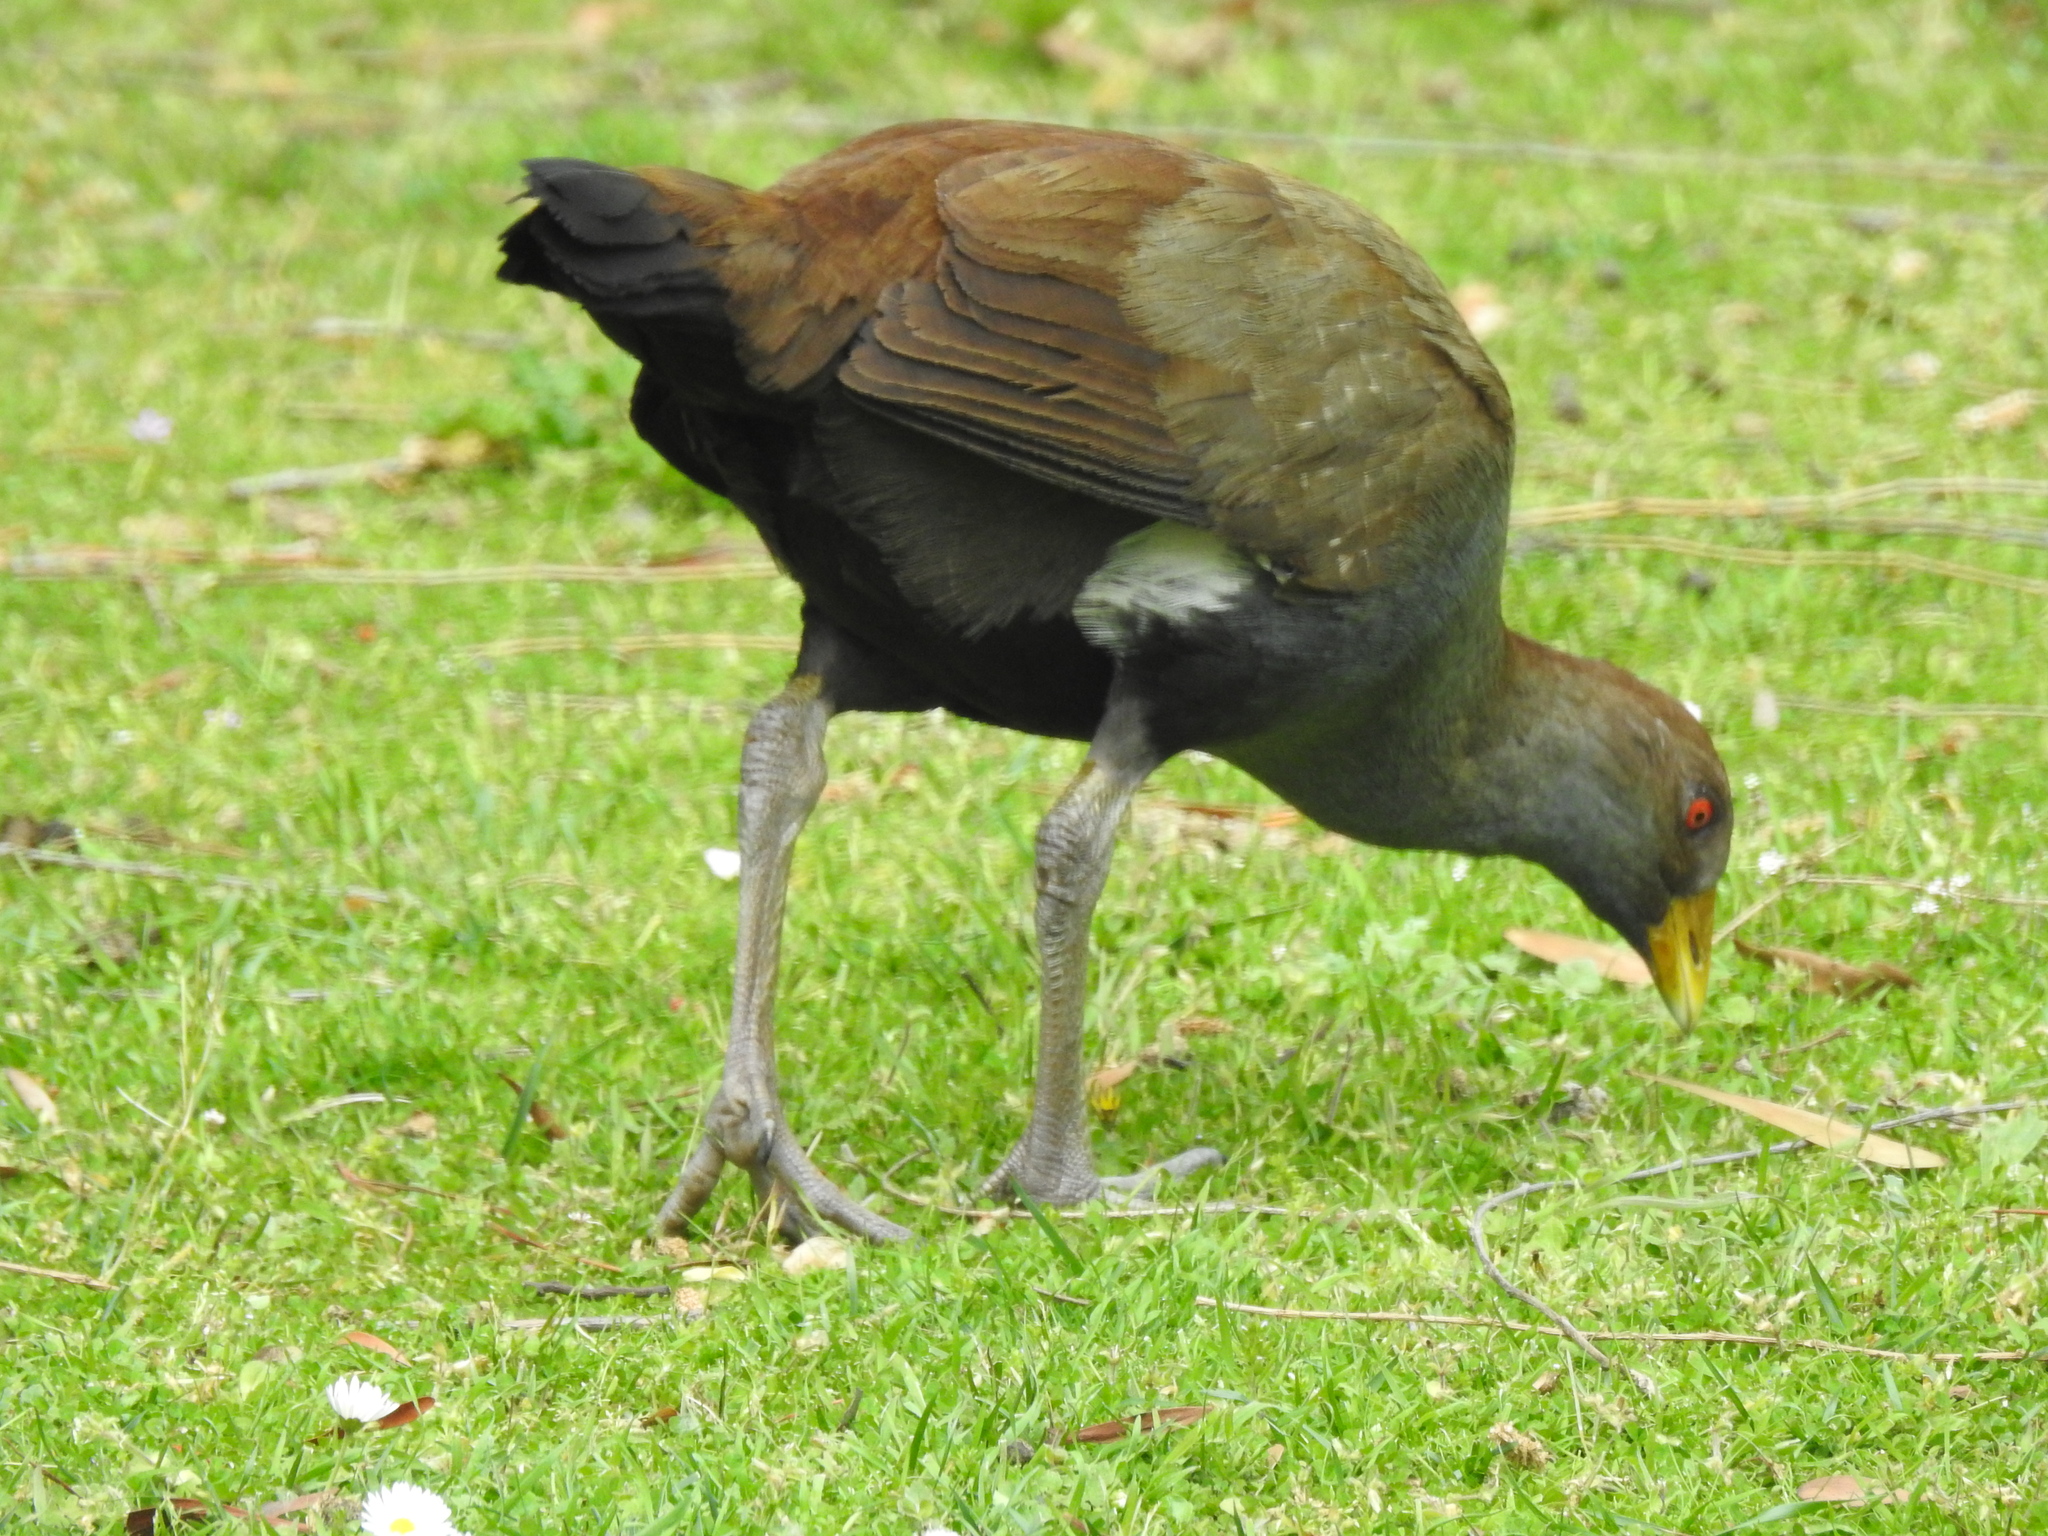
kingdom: Animalia
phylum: Chordata
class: Aves
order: Gruiformes
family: Rallidae
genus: Gallinula
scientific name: Gallinula mortierii
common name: Tasmanian nativehen
